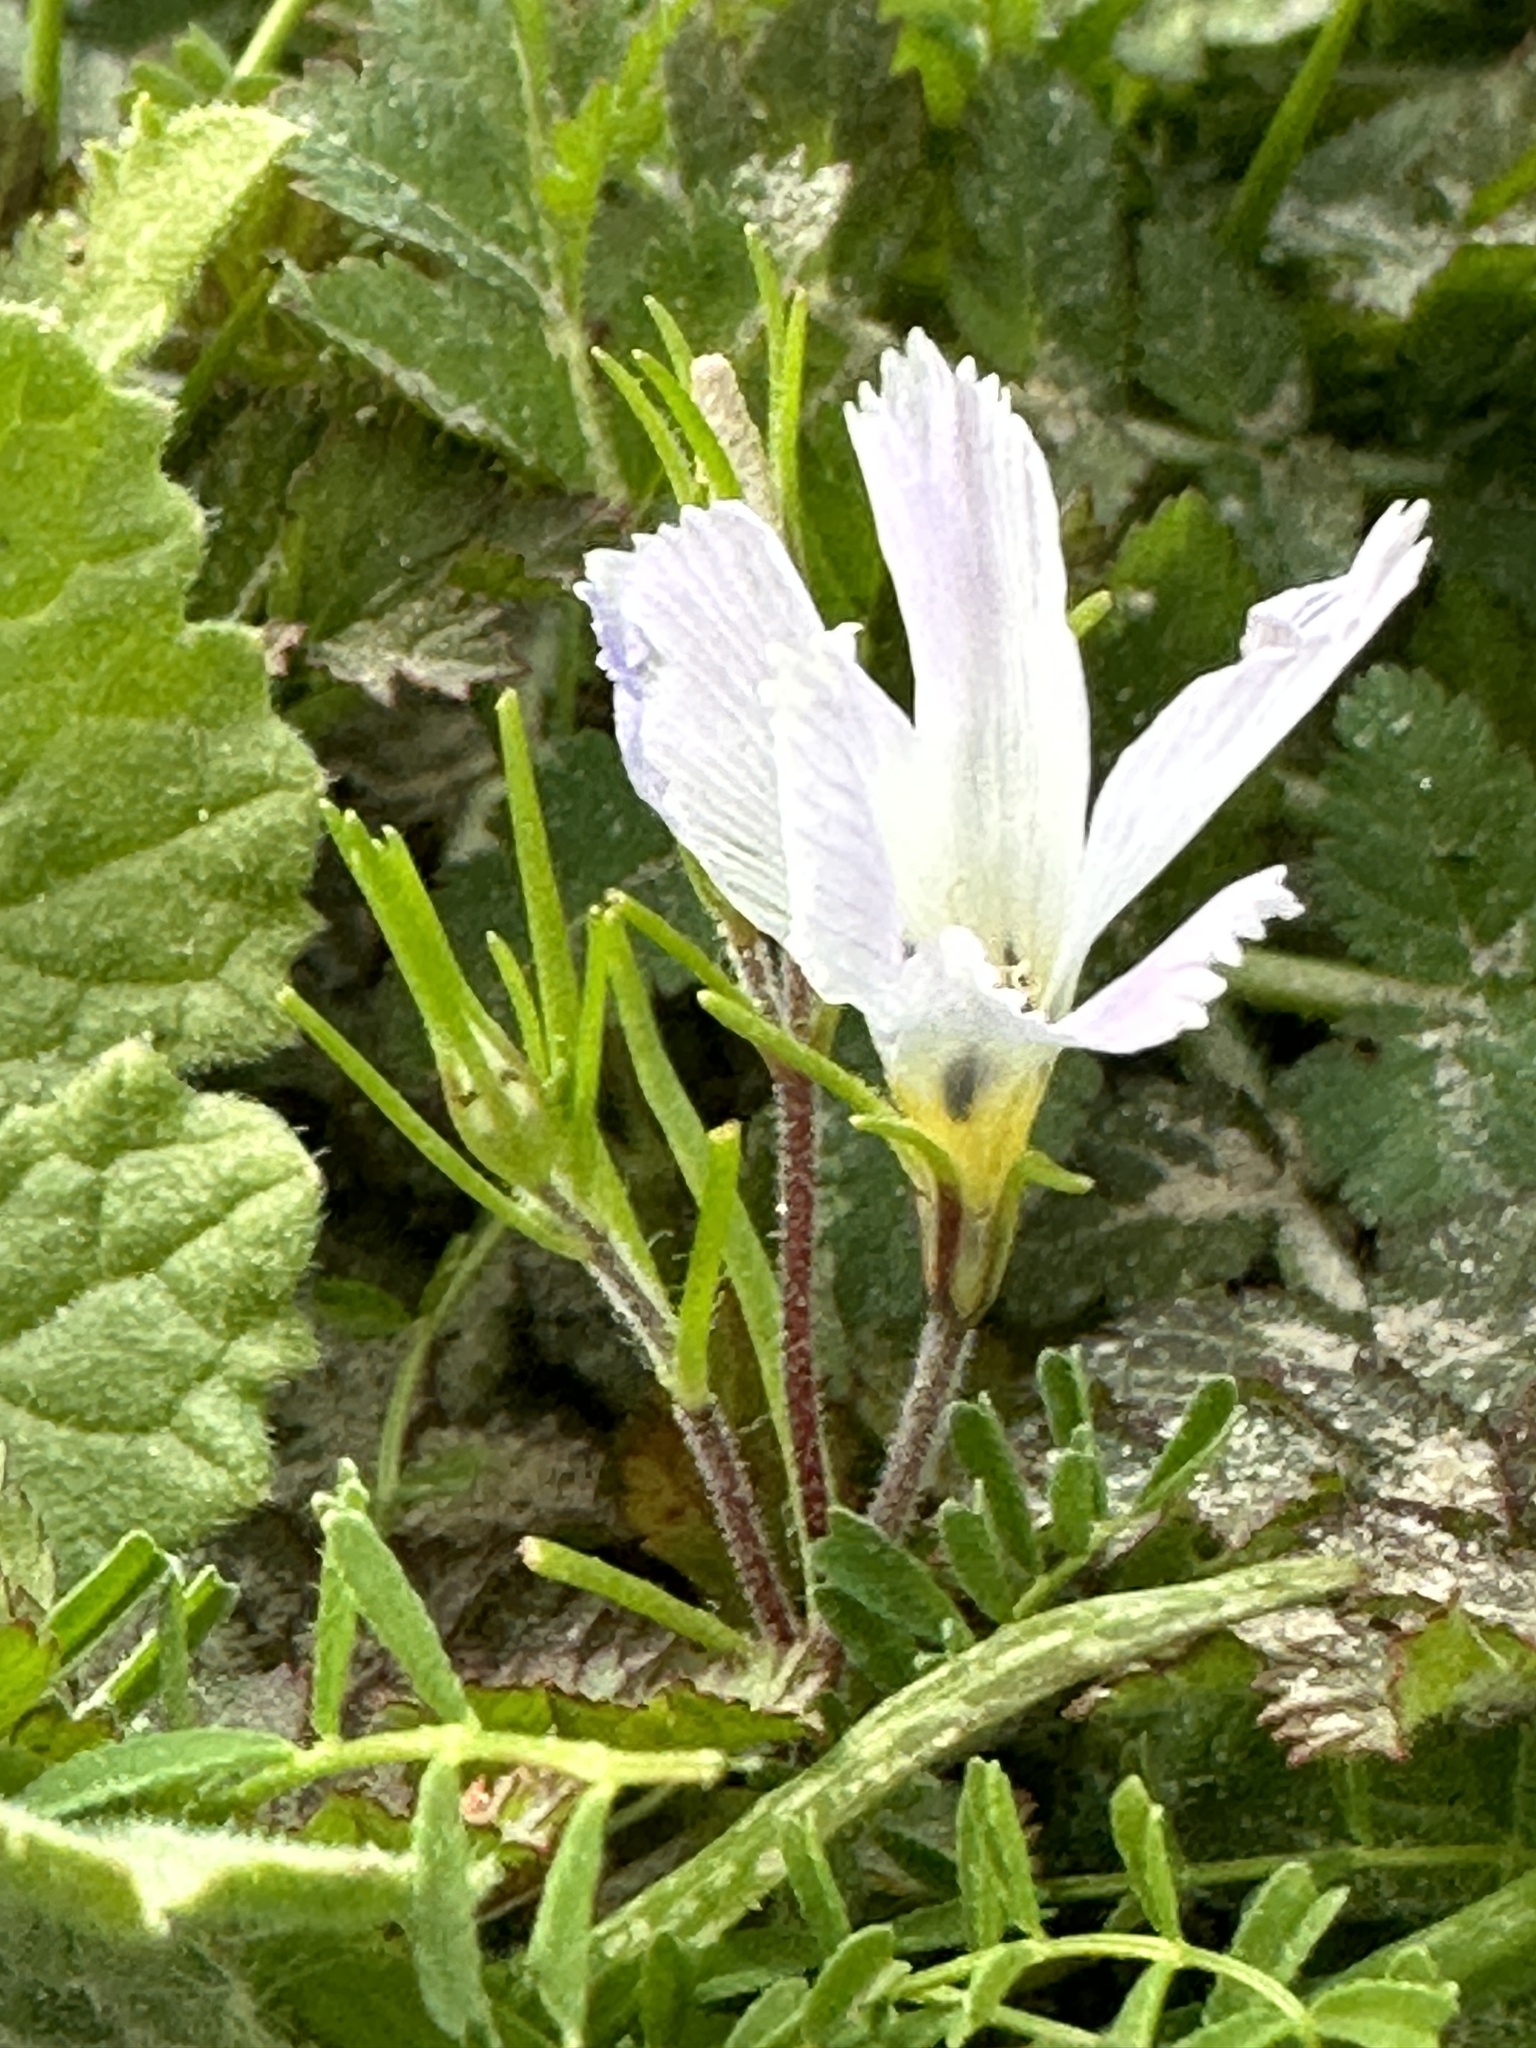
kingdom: Plantae
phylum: Tracheophyta
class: Magnoliopsida
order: Ericales
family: Polemoniaceae
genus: Linanthus
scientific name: Linanthus dianthiflorus
